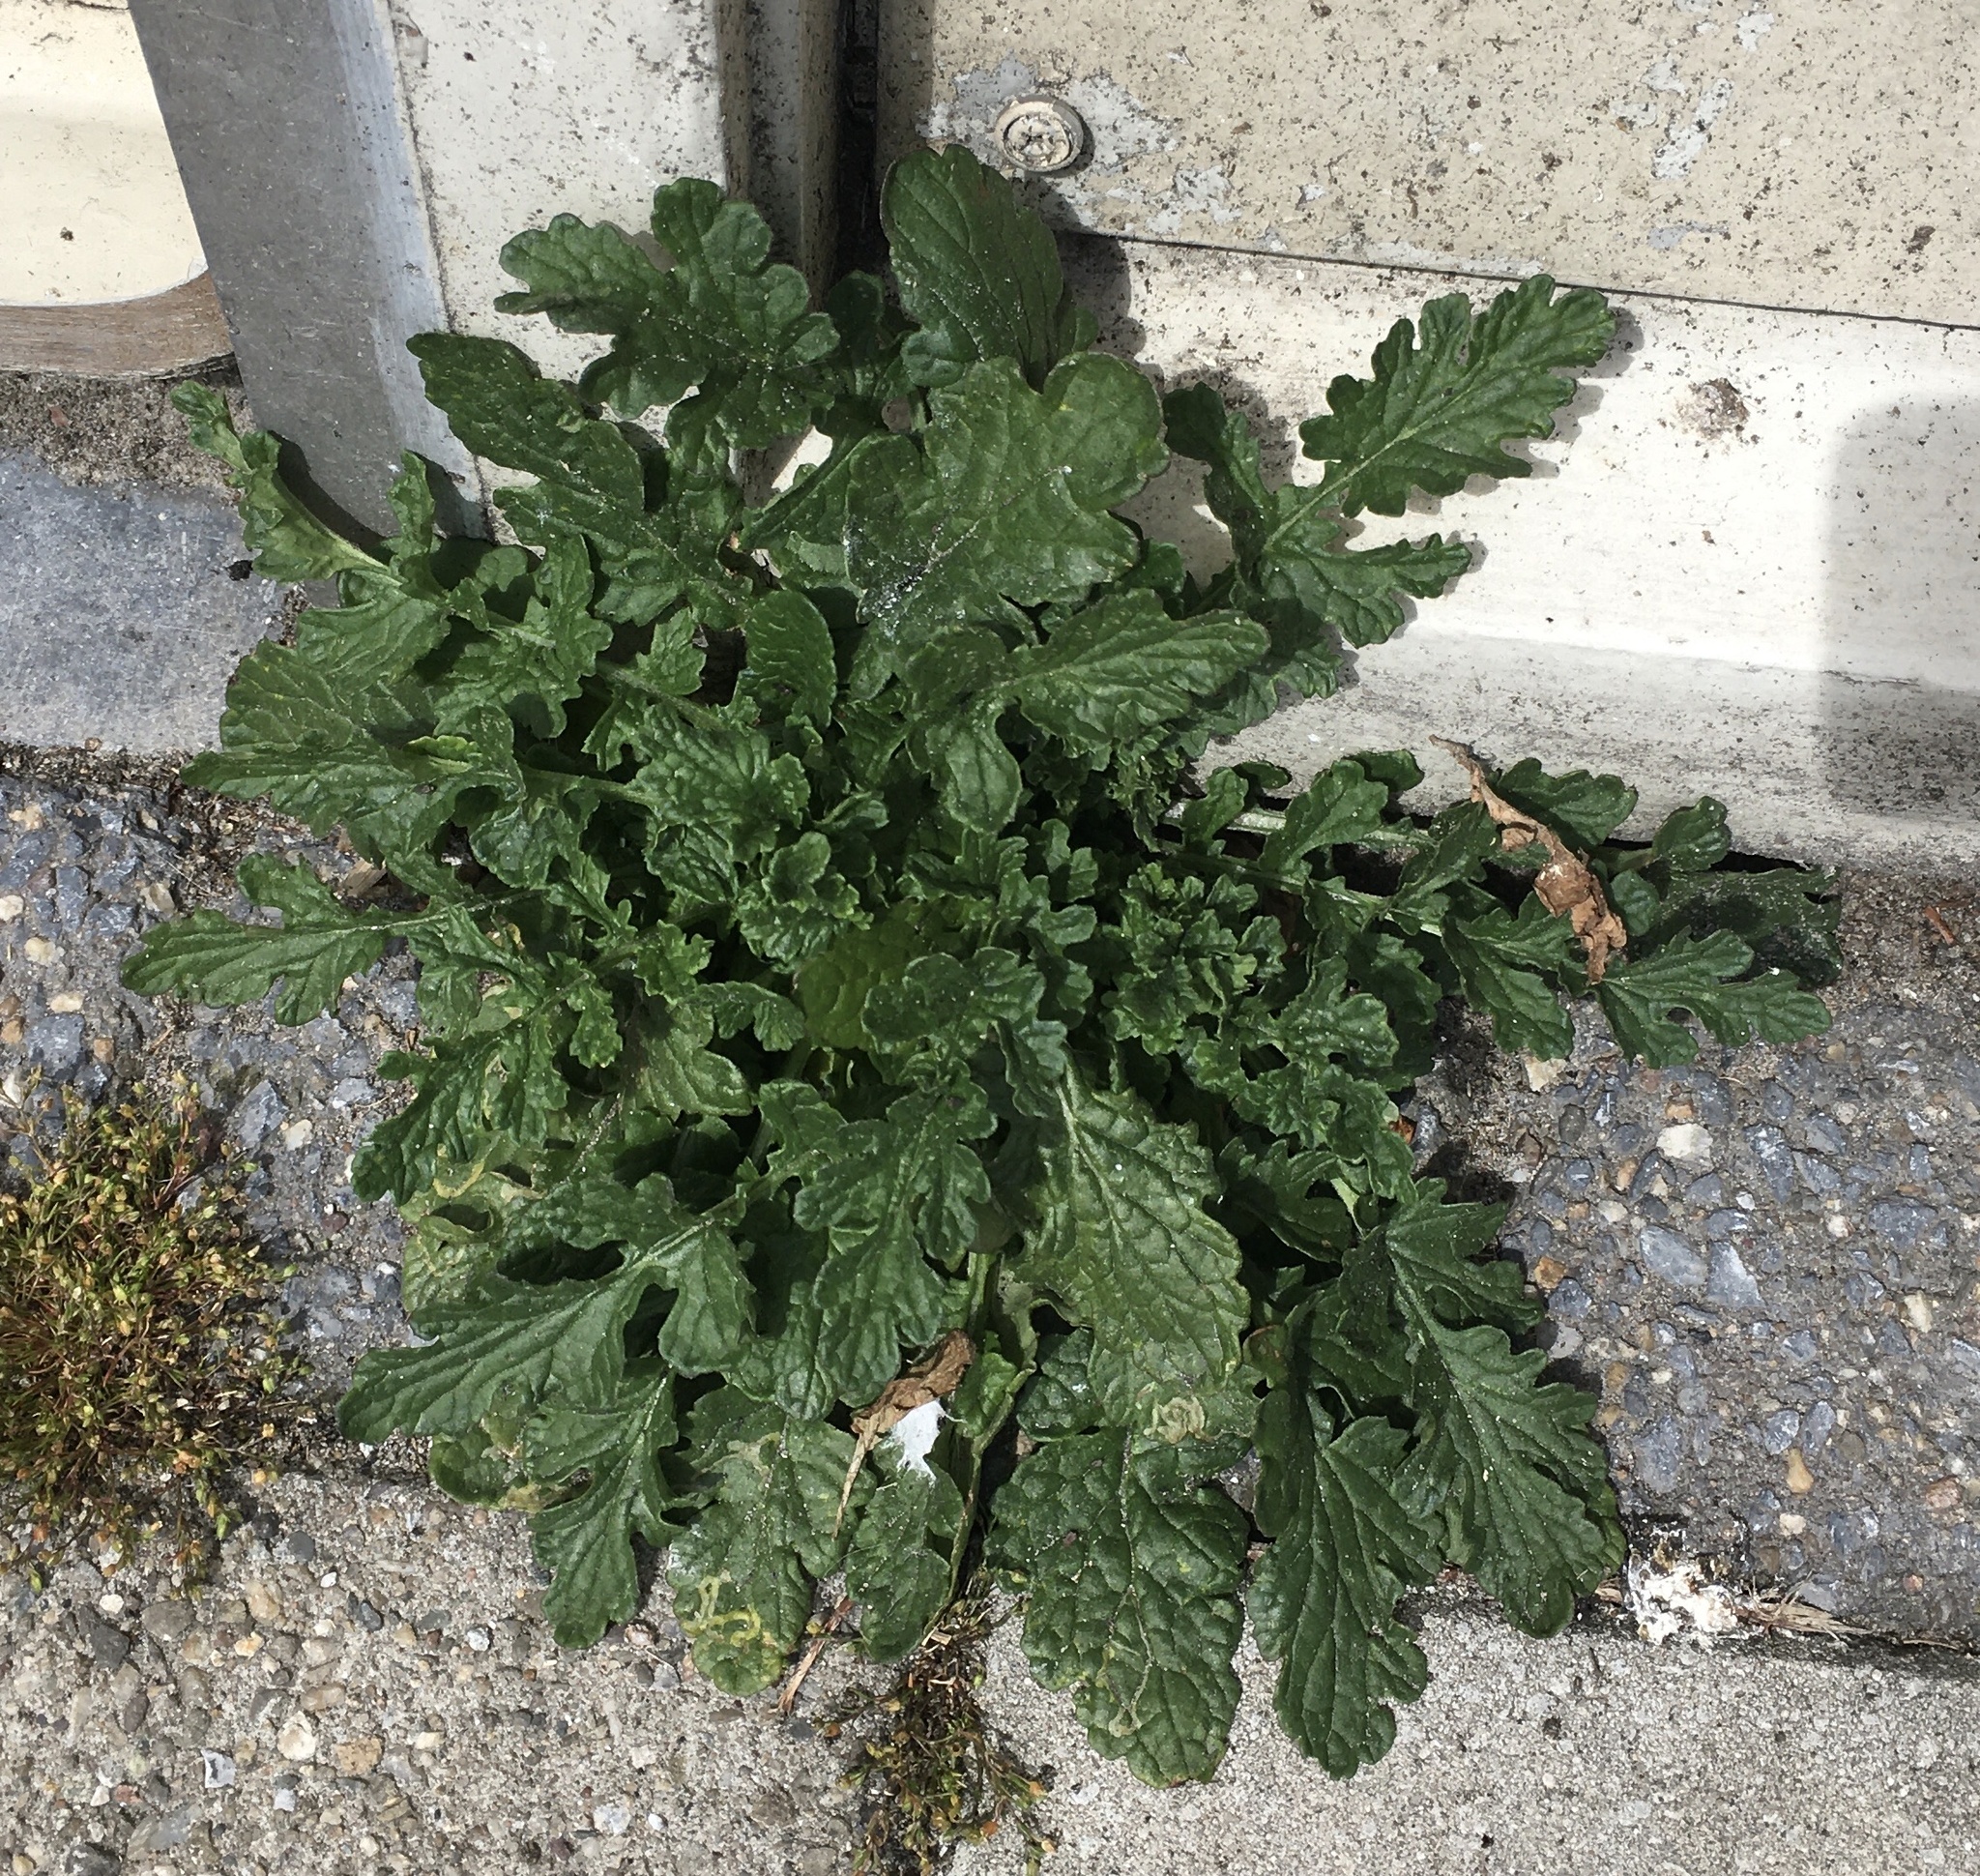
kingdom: Plantae
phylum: Tracheophyta
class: Magnoliopsida
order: Asterales
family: Asteraceae
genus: Jacobaea
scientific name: Jacobaea vulgaris
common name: Stinking willie
